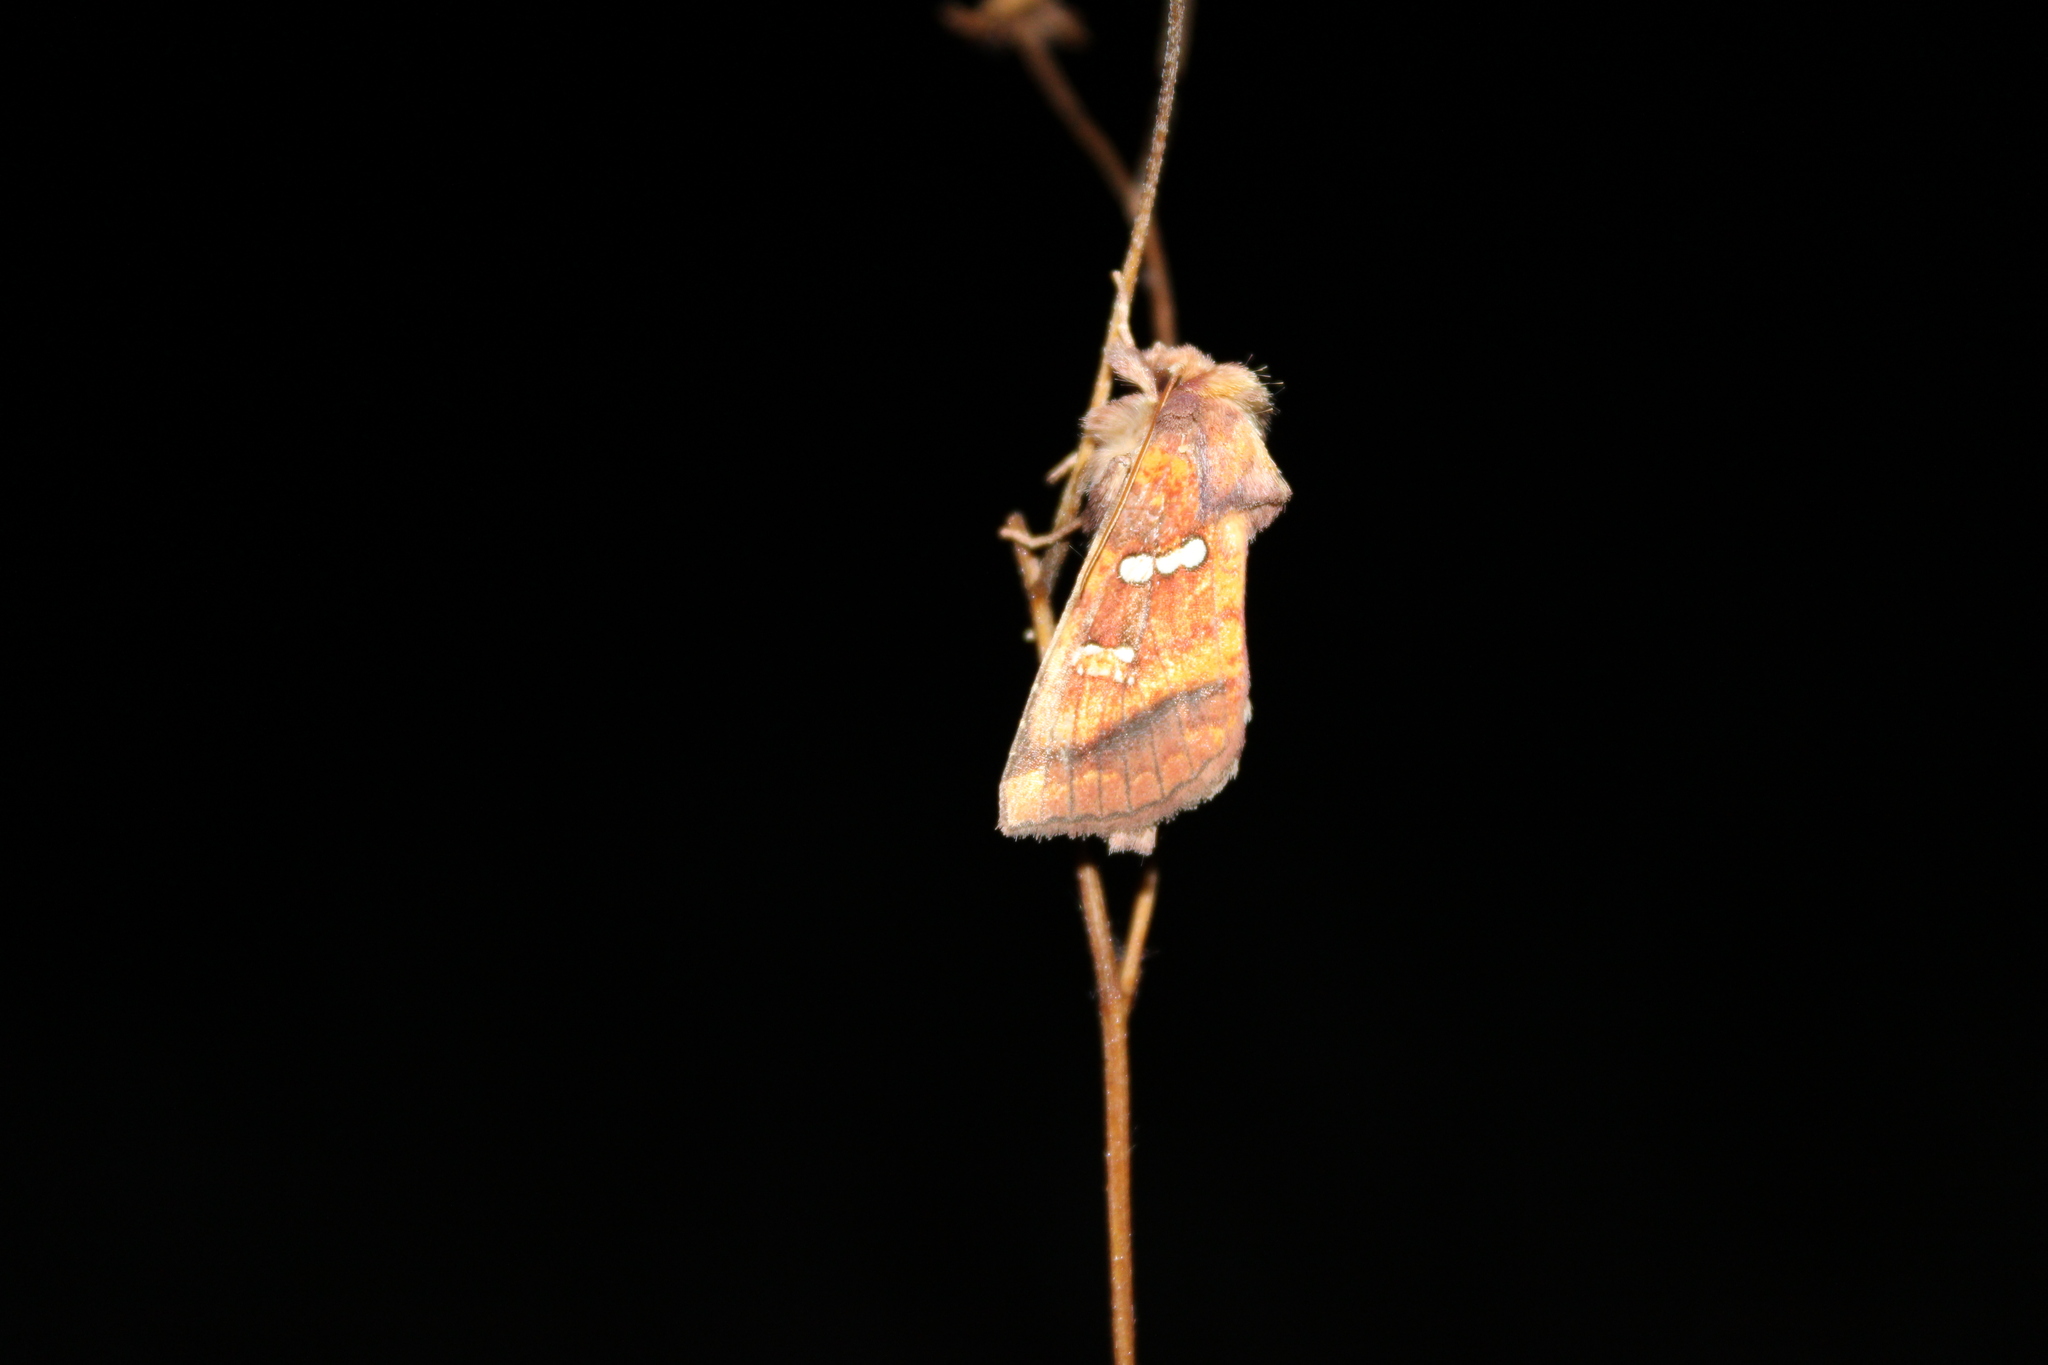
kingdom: Animalia
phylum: Arthropoda
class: Insecta
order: Lepidoptera
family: Noctuidae
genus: Papaipema
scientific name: Papaipema pterisii
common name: Bracken borer moth
